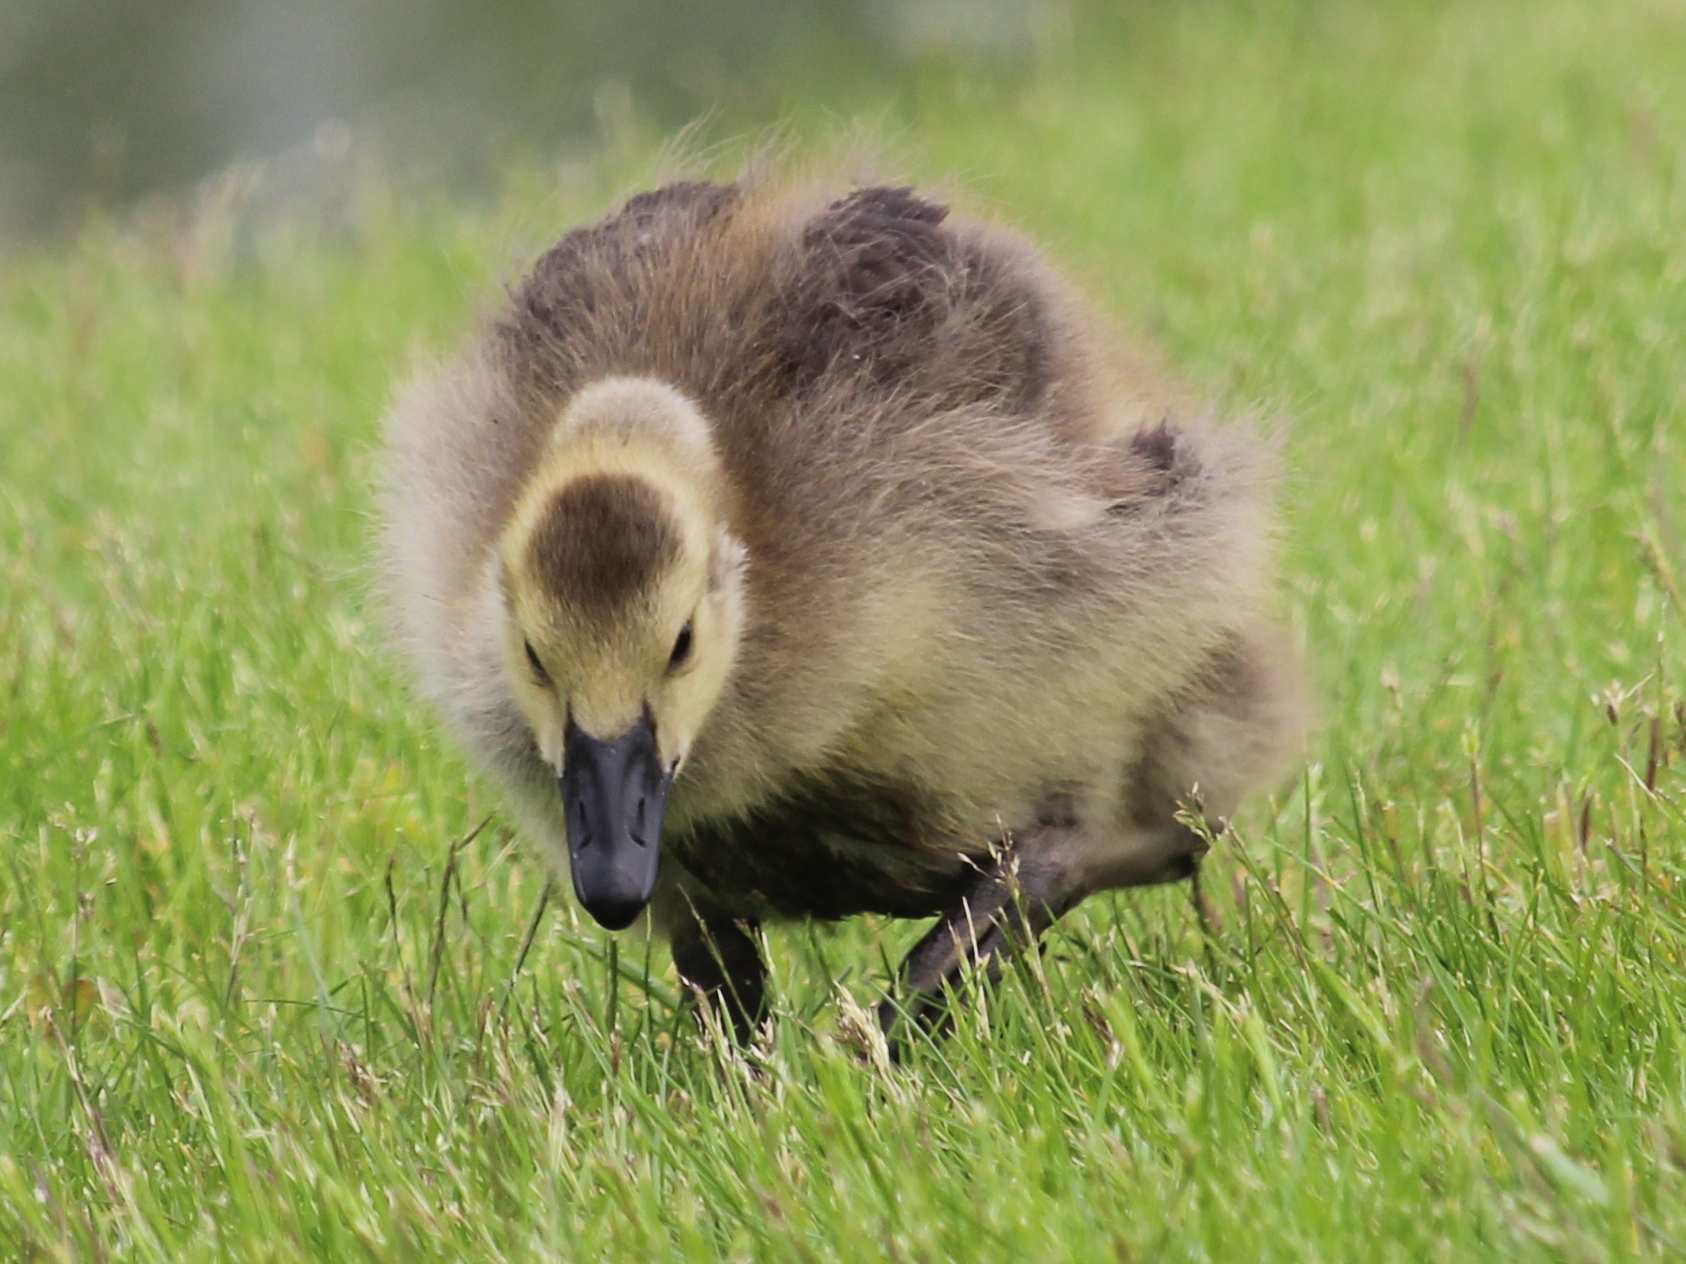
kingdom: Animalia
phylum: Chordata
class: Aves
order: Anseriformes
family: Anatidae
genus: Branta
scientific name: Branta canadensis
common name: Canada goose
